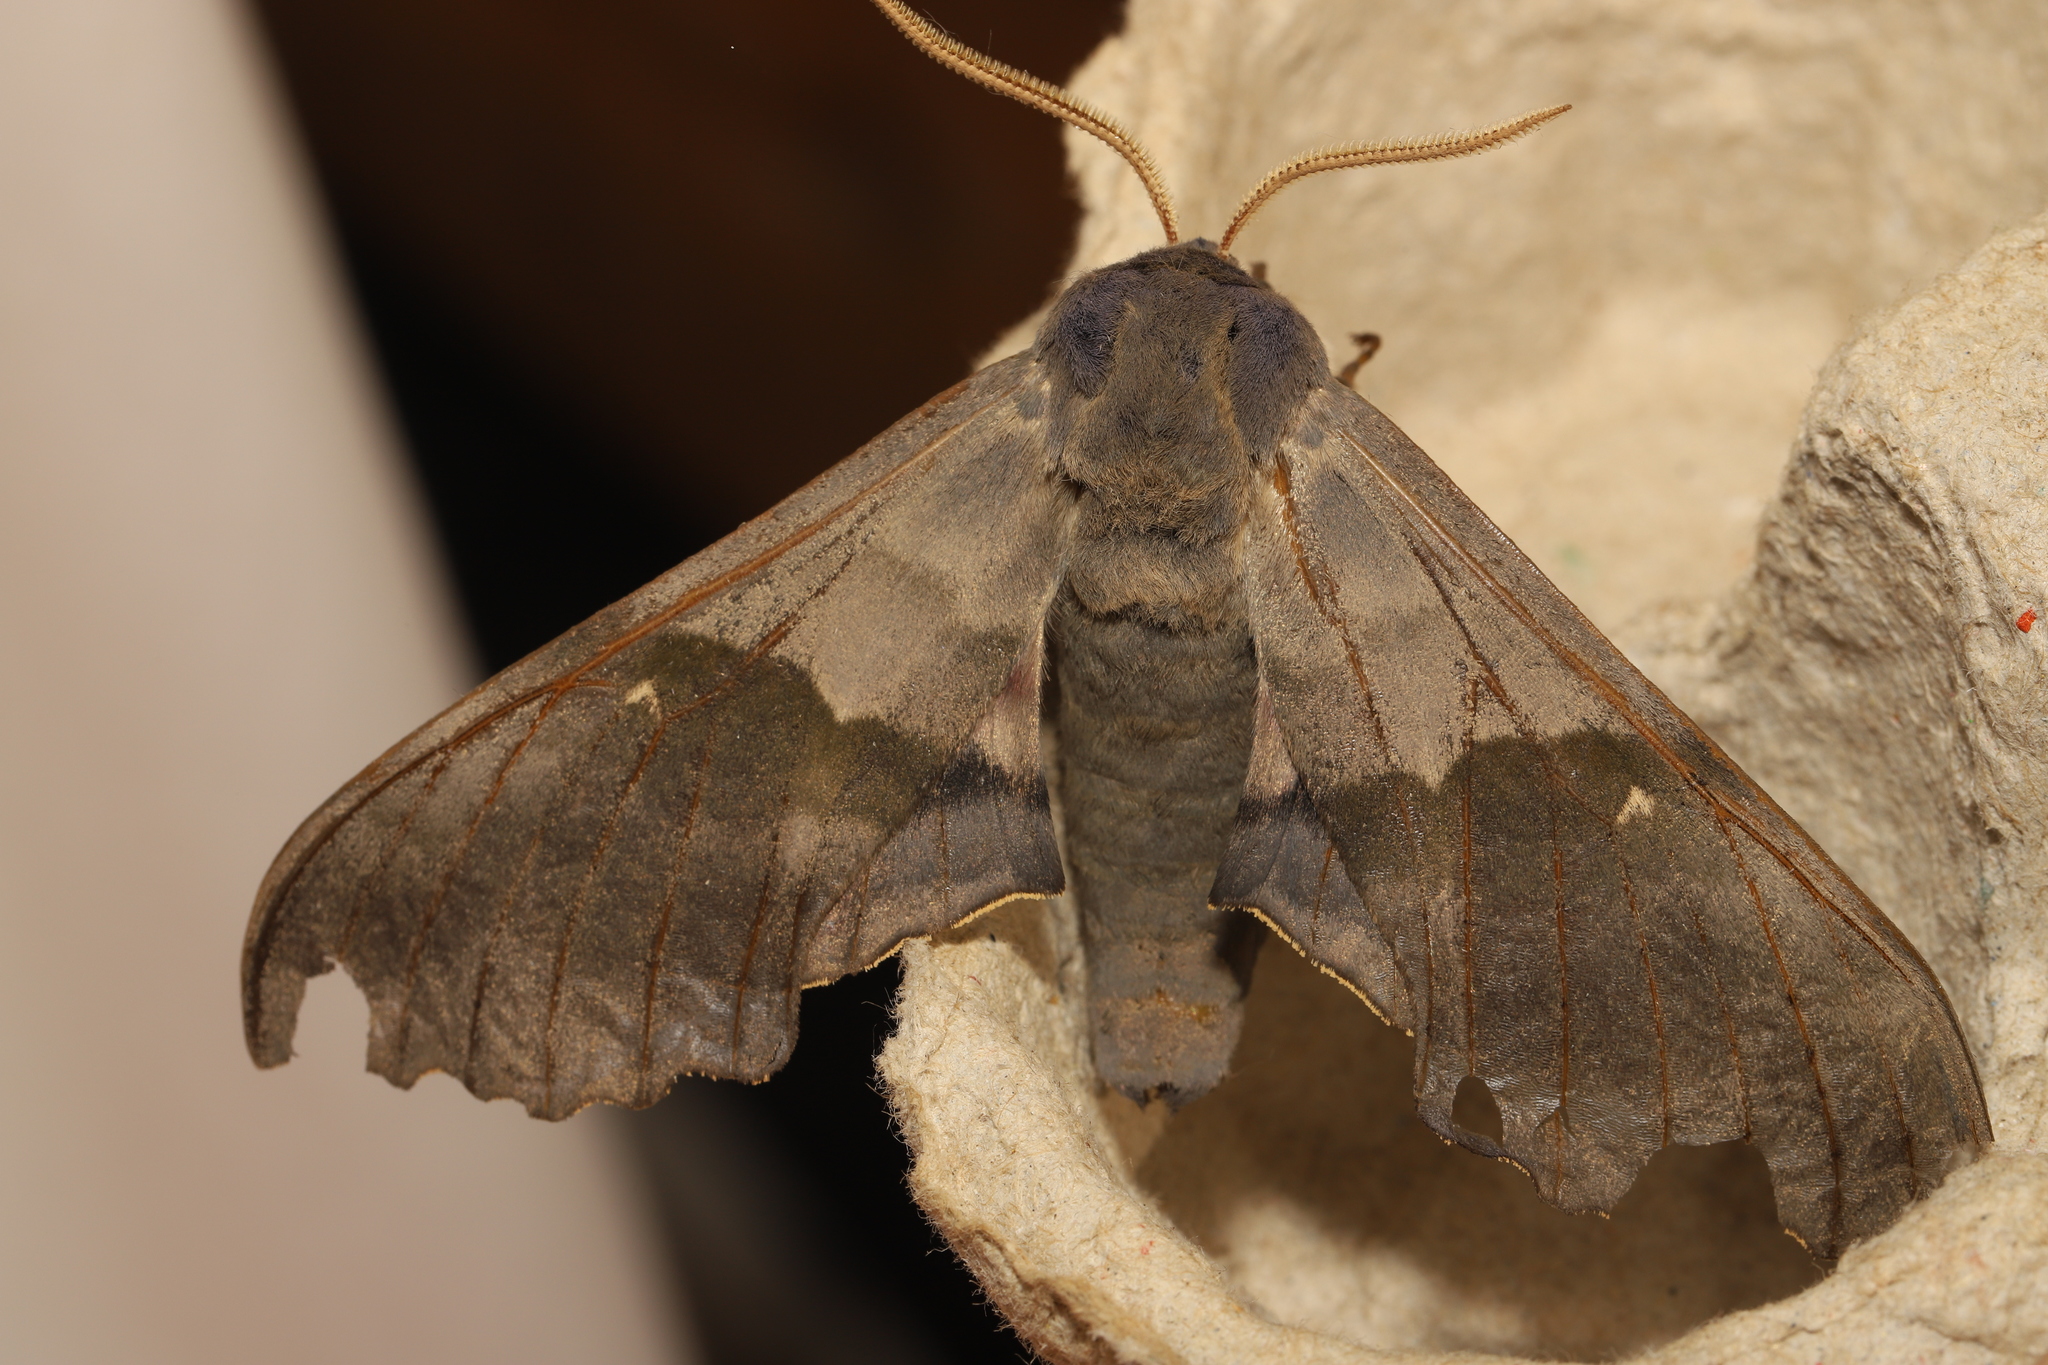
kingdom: Animalia
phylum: Arthropoda
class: Insecta
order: Lepidoptera
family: Sphingidae
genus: Pachysphinx
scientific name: Pachysphinx modesta
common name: Big poplar sphinx
